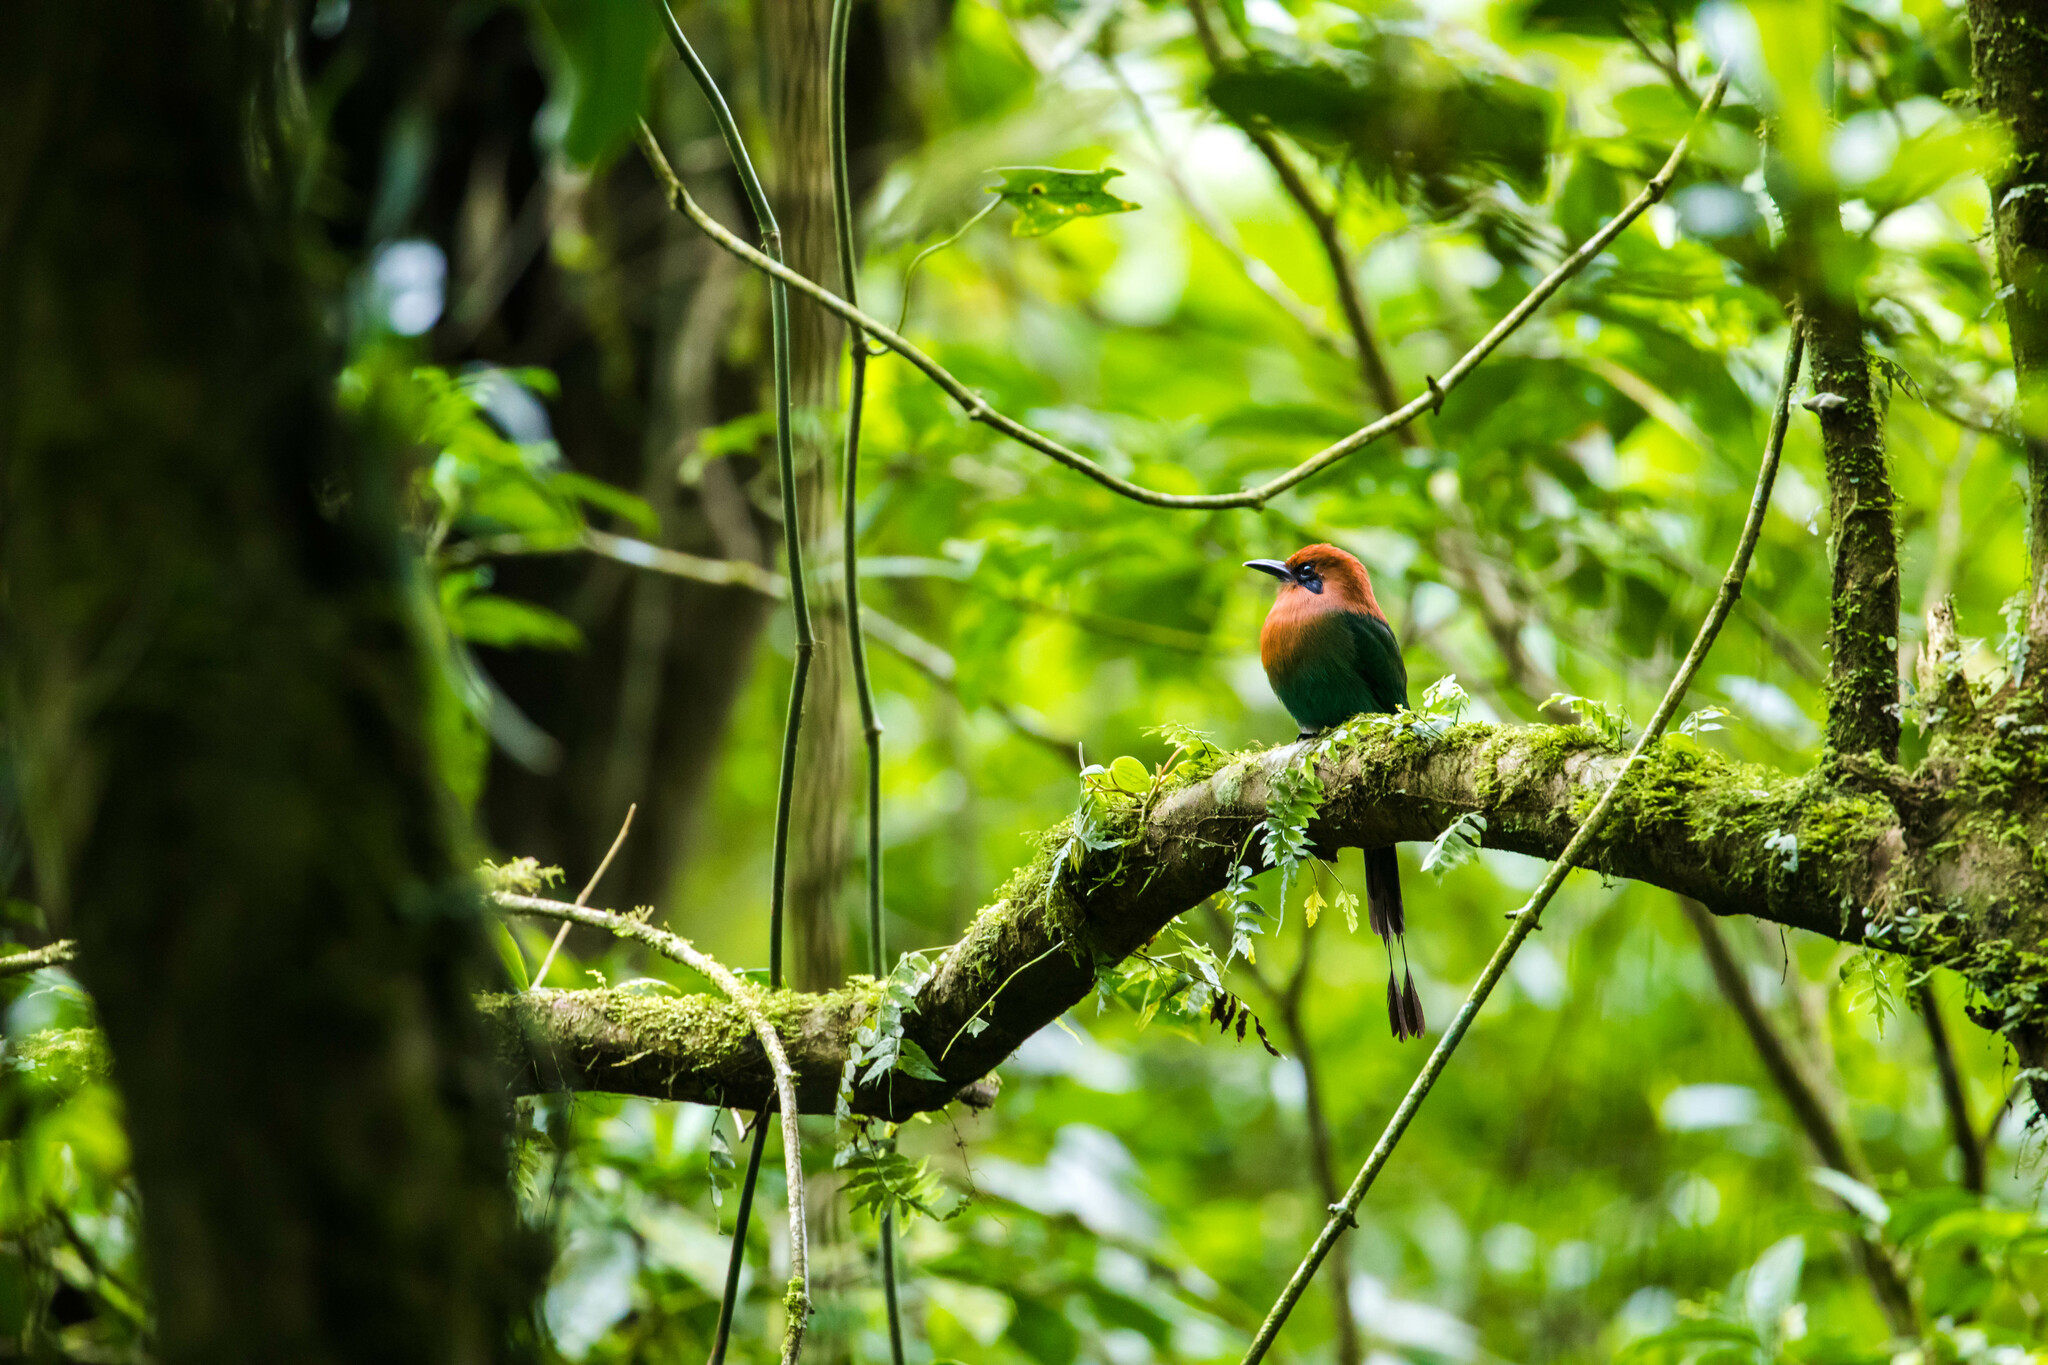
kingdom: Animalia
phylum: Chordata
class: Aves
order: Coraciiformes
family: Momotidae
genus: Electron
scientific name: Electron platyrhynchum
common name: Broad-billed motmot
